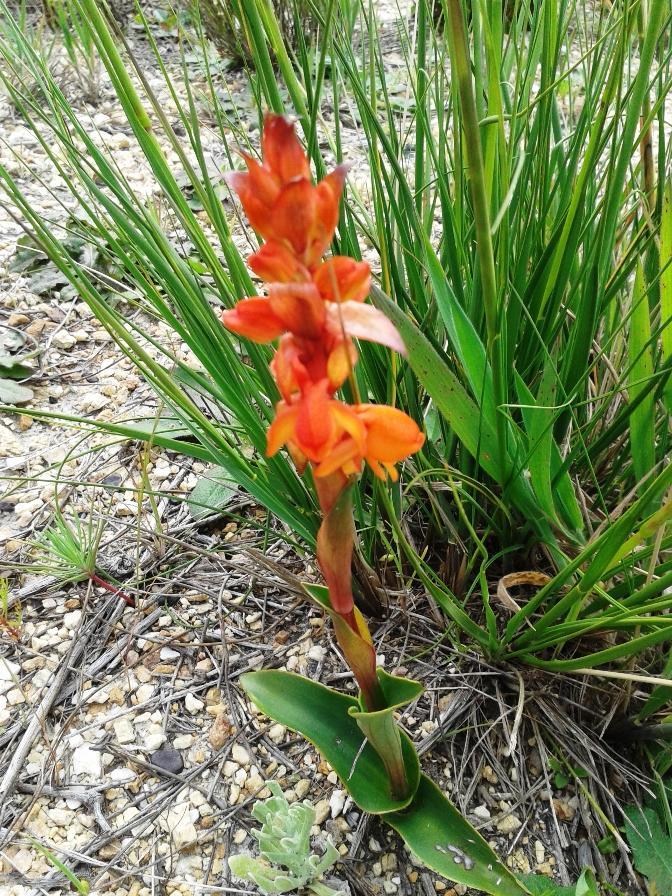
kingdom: Plantae
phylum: Tracheophyta
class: Liliopsida
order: Asparagales
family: Orchidaceae
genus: Satyrium
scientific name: Satyrium coriifolium
